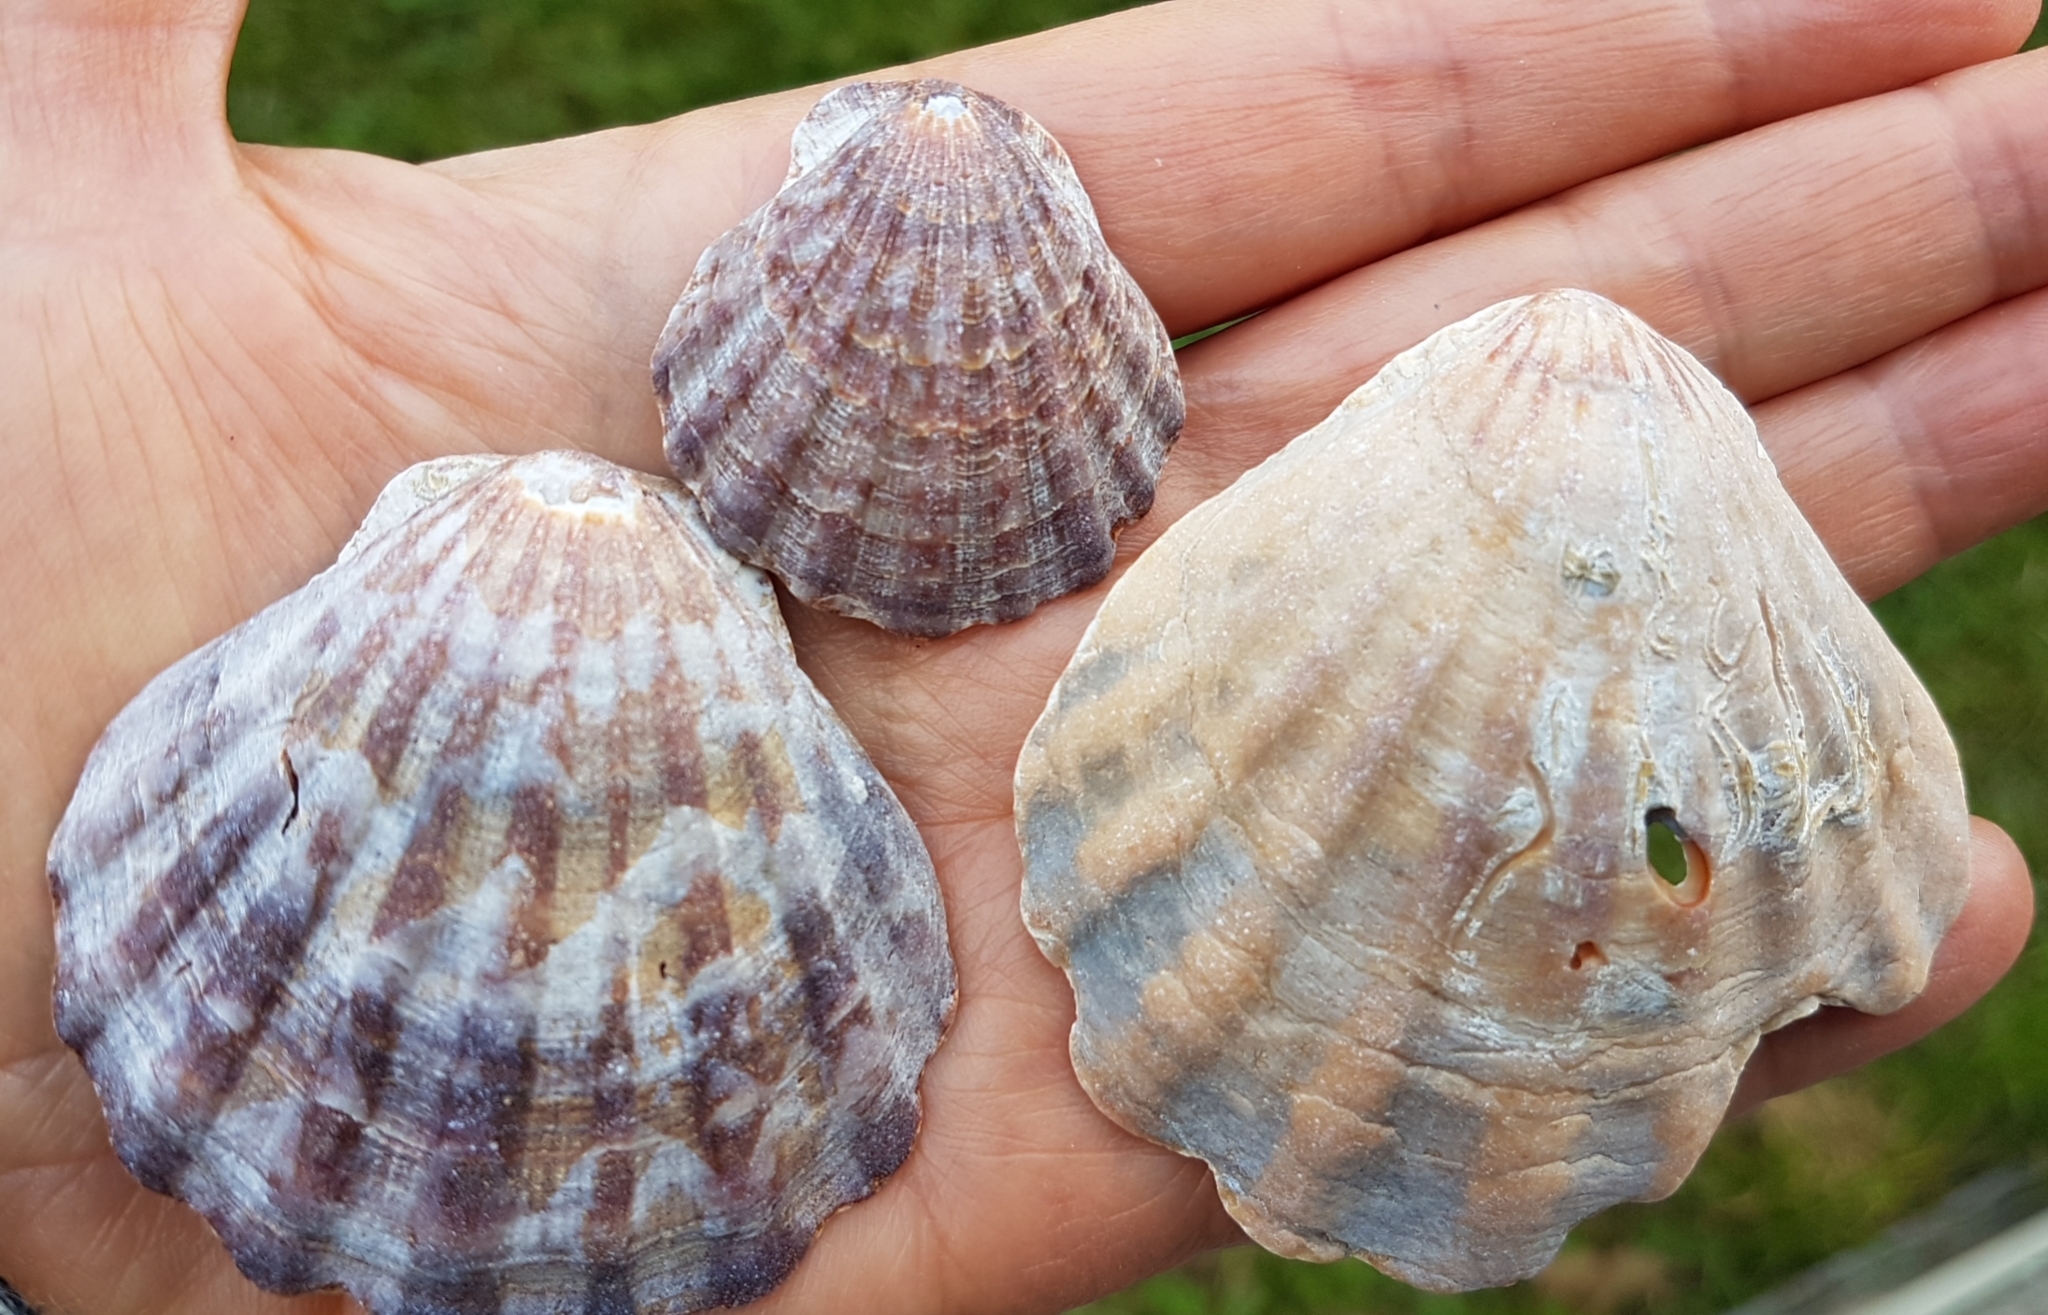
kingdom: Animalia
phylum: Mollusca
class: Bivalvia
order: Pectinida
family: Pectinidae
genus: Flexopecten
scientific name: Flexopecten glaber
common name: Smooth scallop
